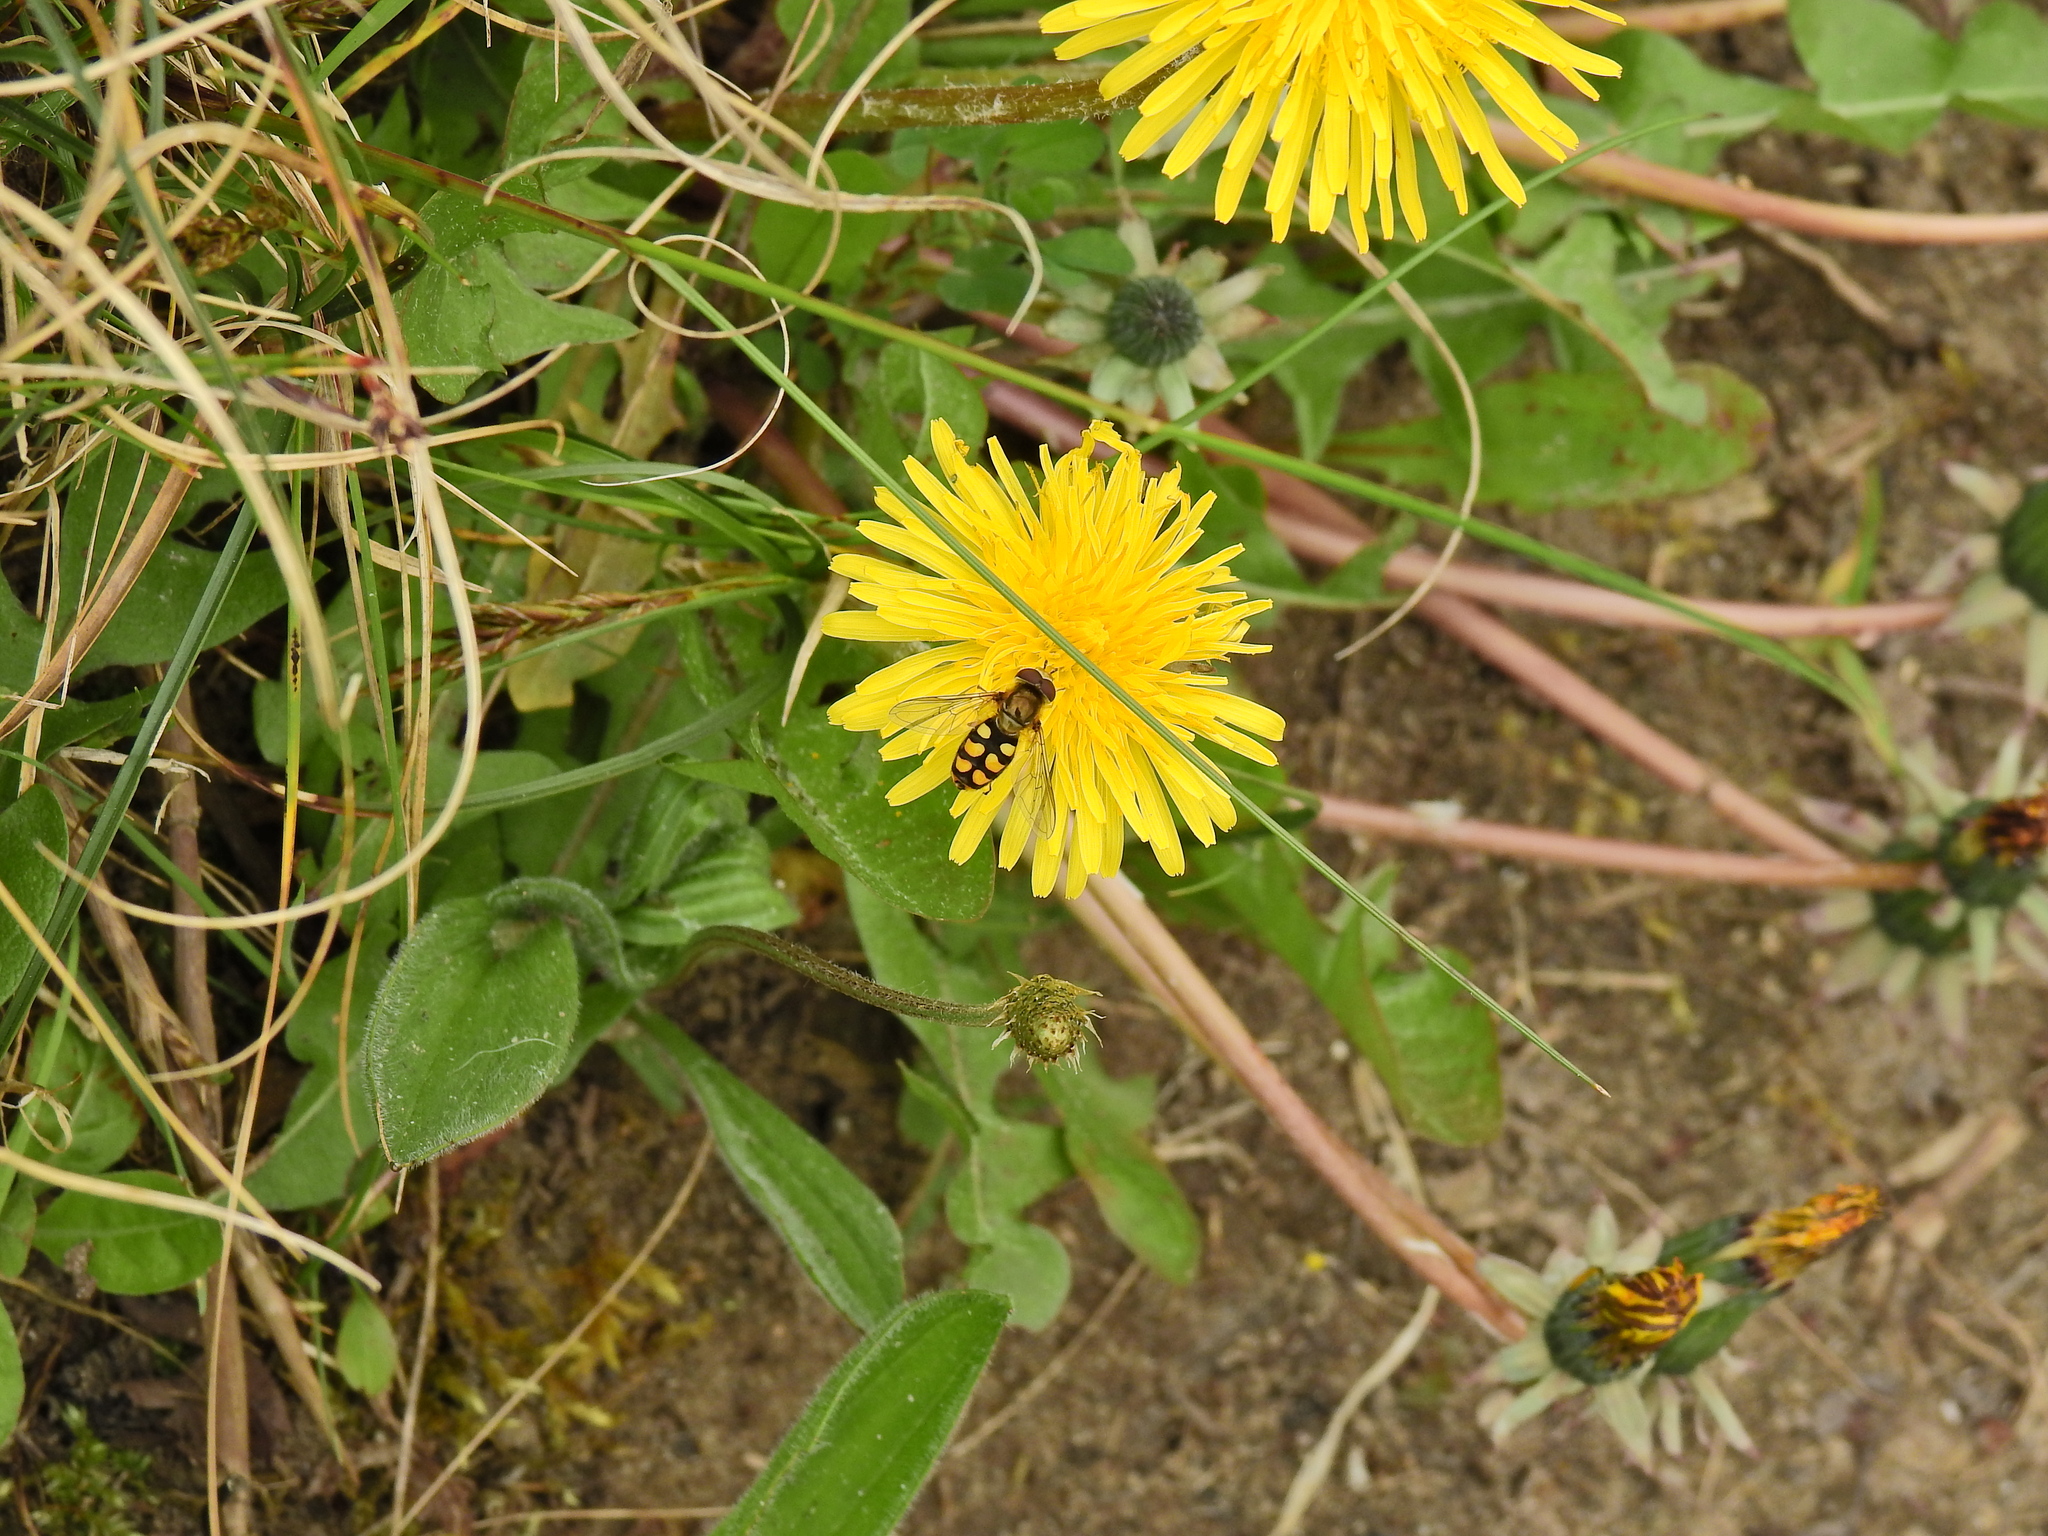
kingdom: Animalia
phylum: Arthropoda
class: Insecta
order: Diptera
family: Syrphidae
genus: Eupeodes
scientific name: Eupeodes
